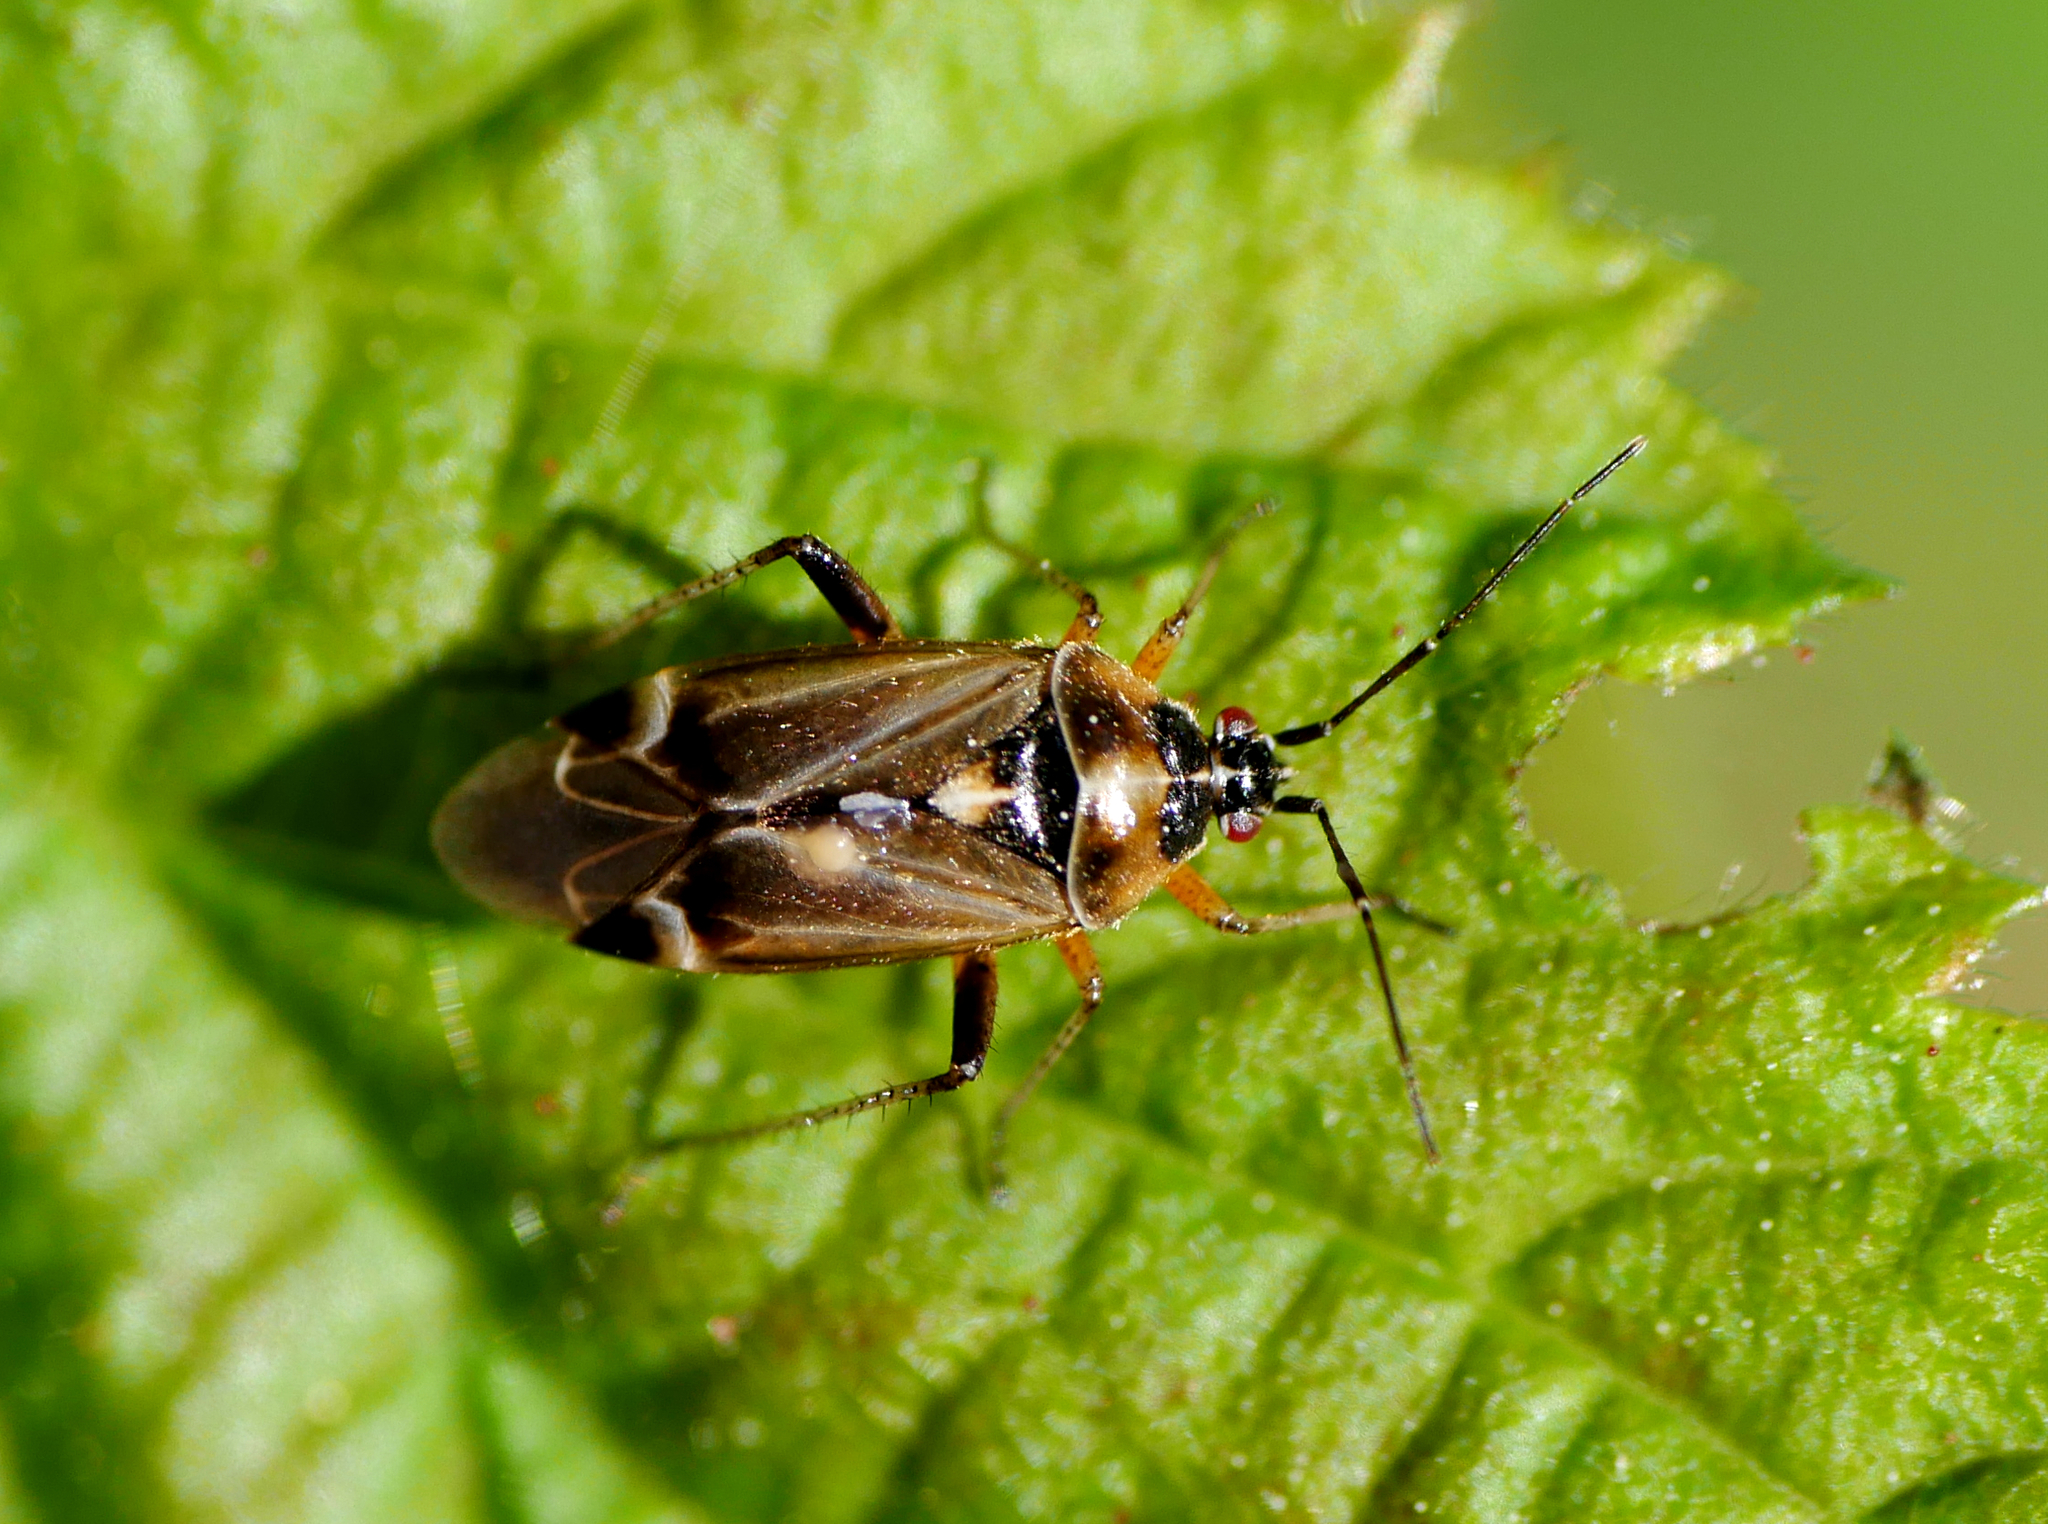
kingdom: Animalia
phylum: Arthropoda
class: Insecta
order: Hemiptera
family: Miridae
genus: Harpocera
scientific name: Harpocera thoracica
